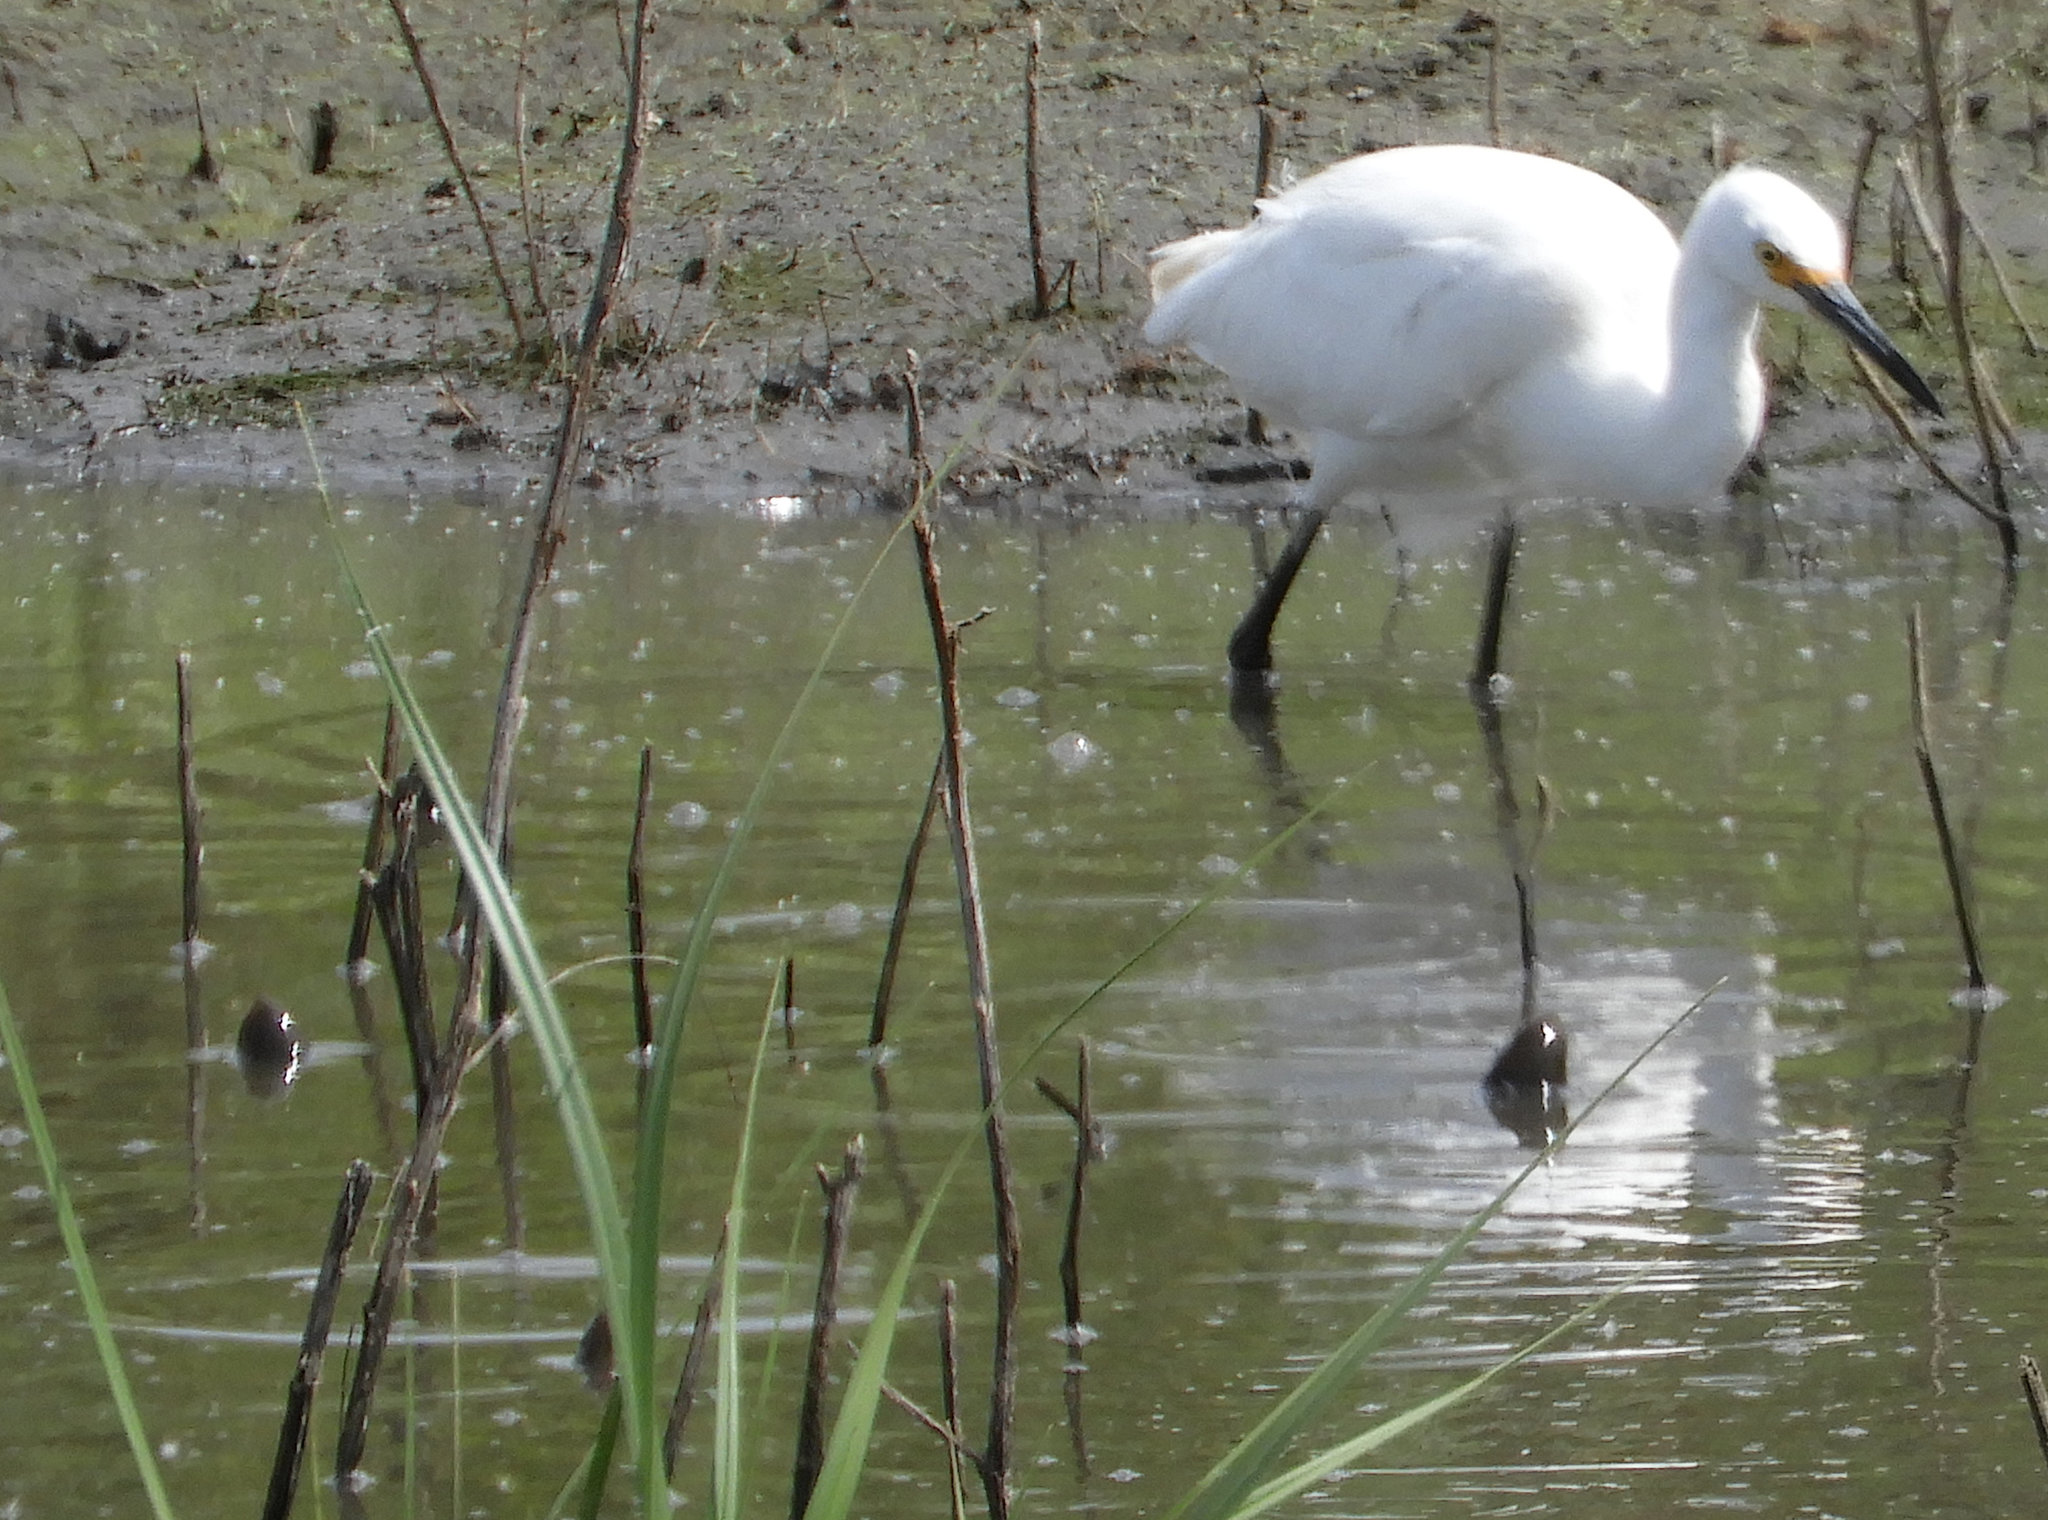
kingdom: Animalia
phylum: Chordata
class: Aves
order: Pelecaniformes
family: Ardeidae
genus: Egretta
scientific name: Egretta thula
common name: Snowy egret
